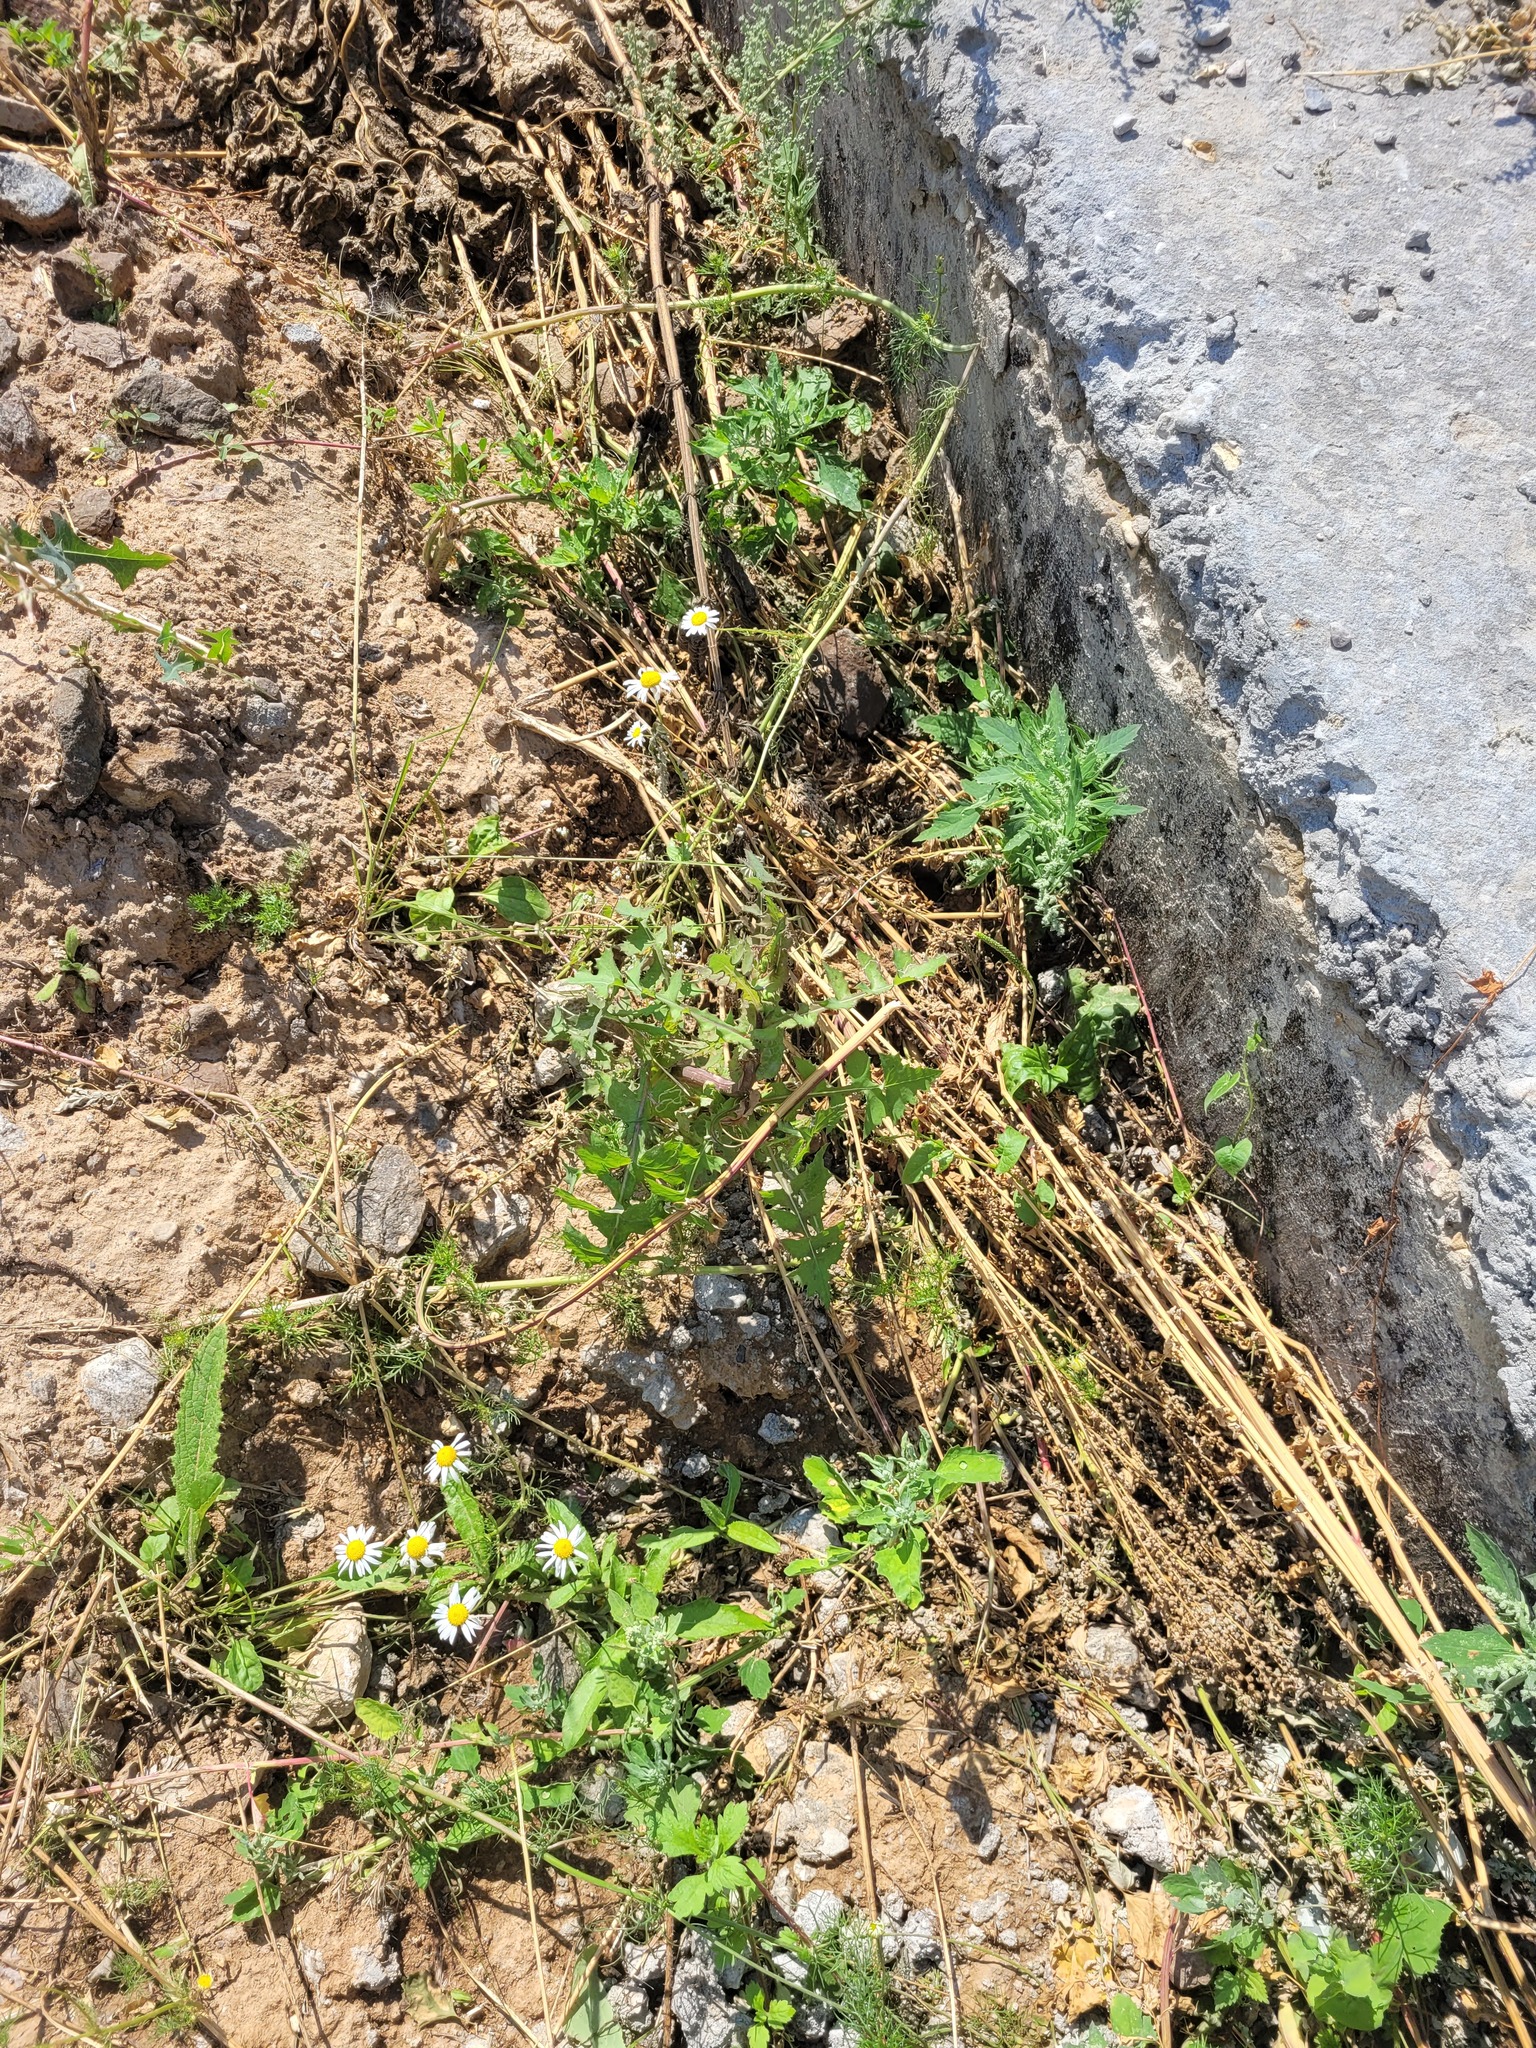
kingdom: Plantae
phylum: Tracheophyta
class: Magnoliopsida
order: Asterales
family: Asteraceae
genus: Sonchus
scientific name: Sonchus oleraceus
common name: Common sowthistle
